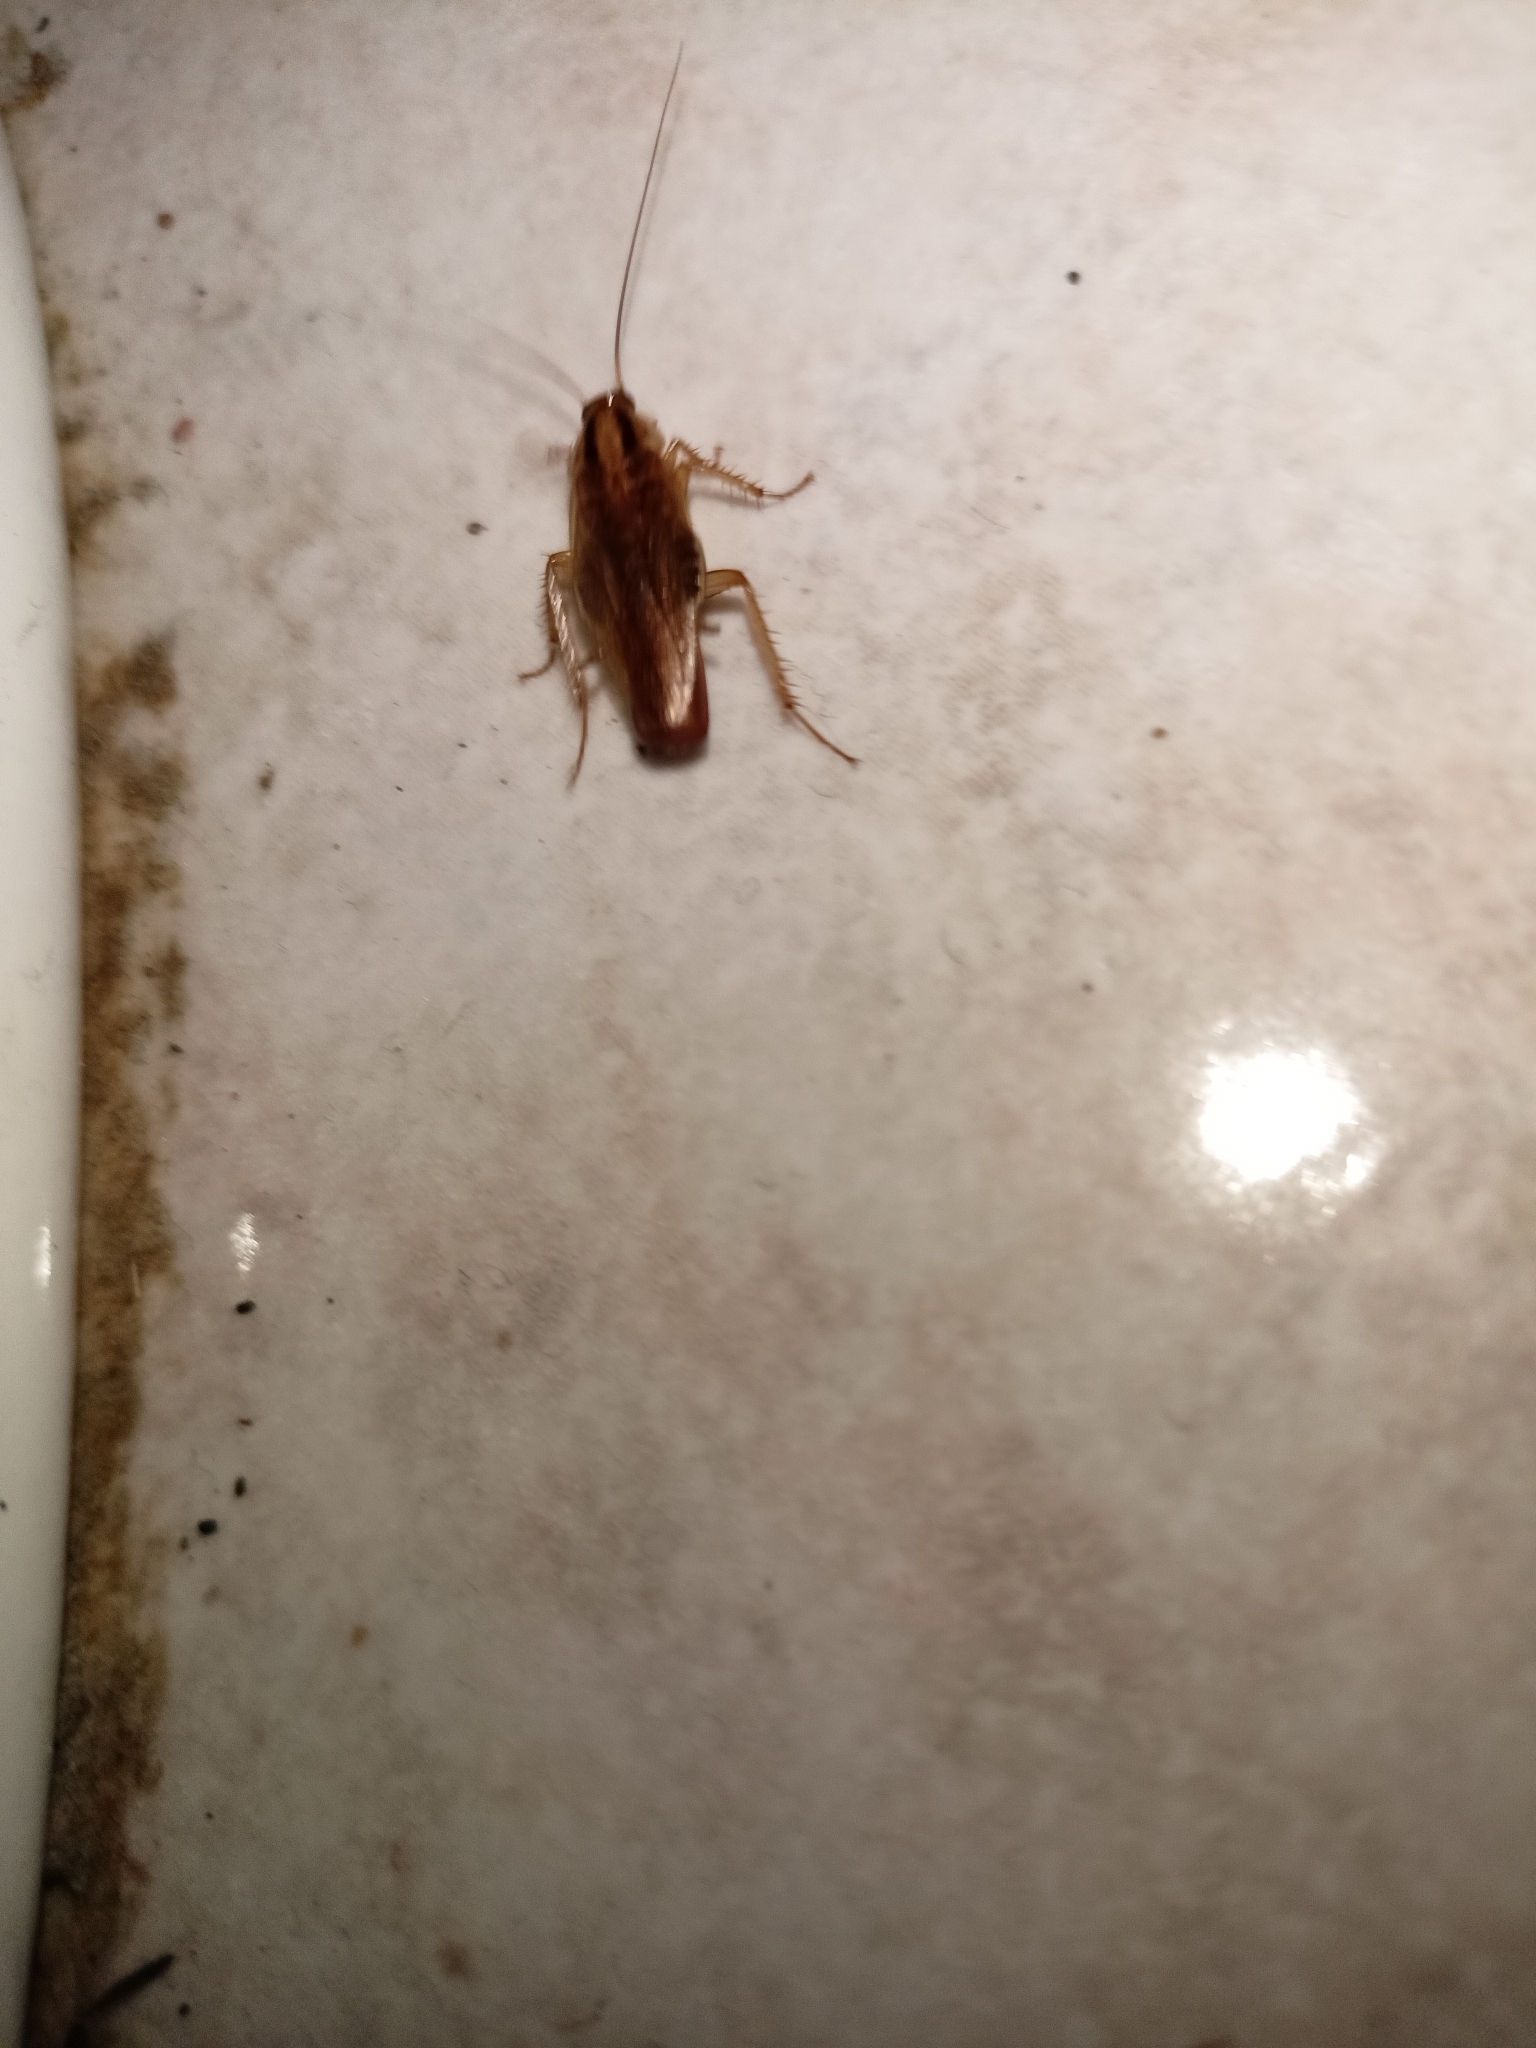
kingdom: Animalia
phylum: Arthropoda
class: Insecta
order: Blattodea
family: Ectobiidae
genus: Blattella
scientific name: Blattella germanica
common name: German cockroach
